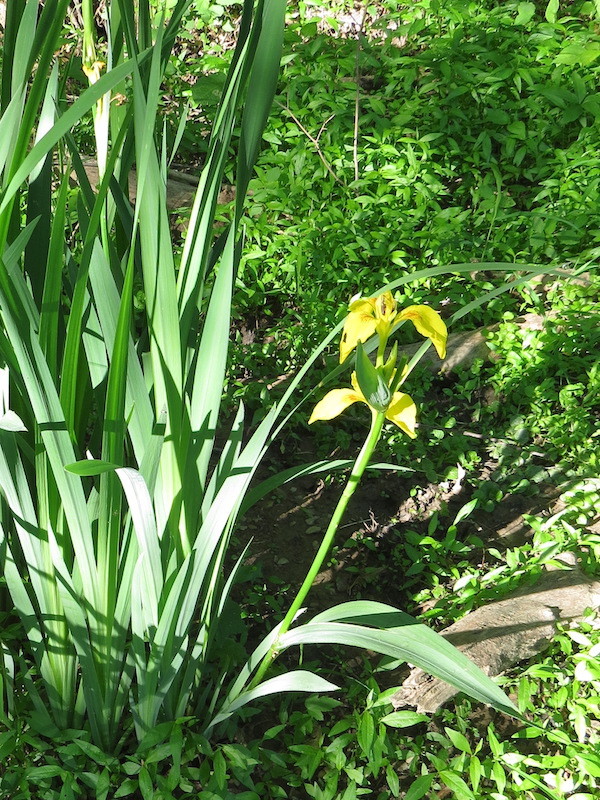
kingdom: Plantae
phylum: Tracheophyta
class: Liliopsida
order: Asparagales
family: Iridaceae
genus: Iris
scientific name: Iris pseudacorus
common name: Yellow flag
